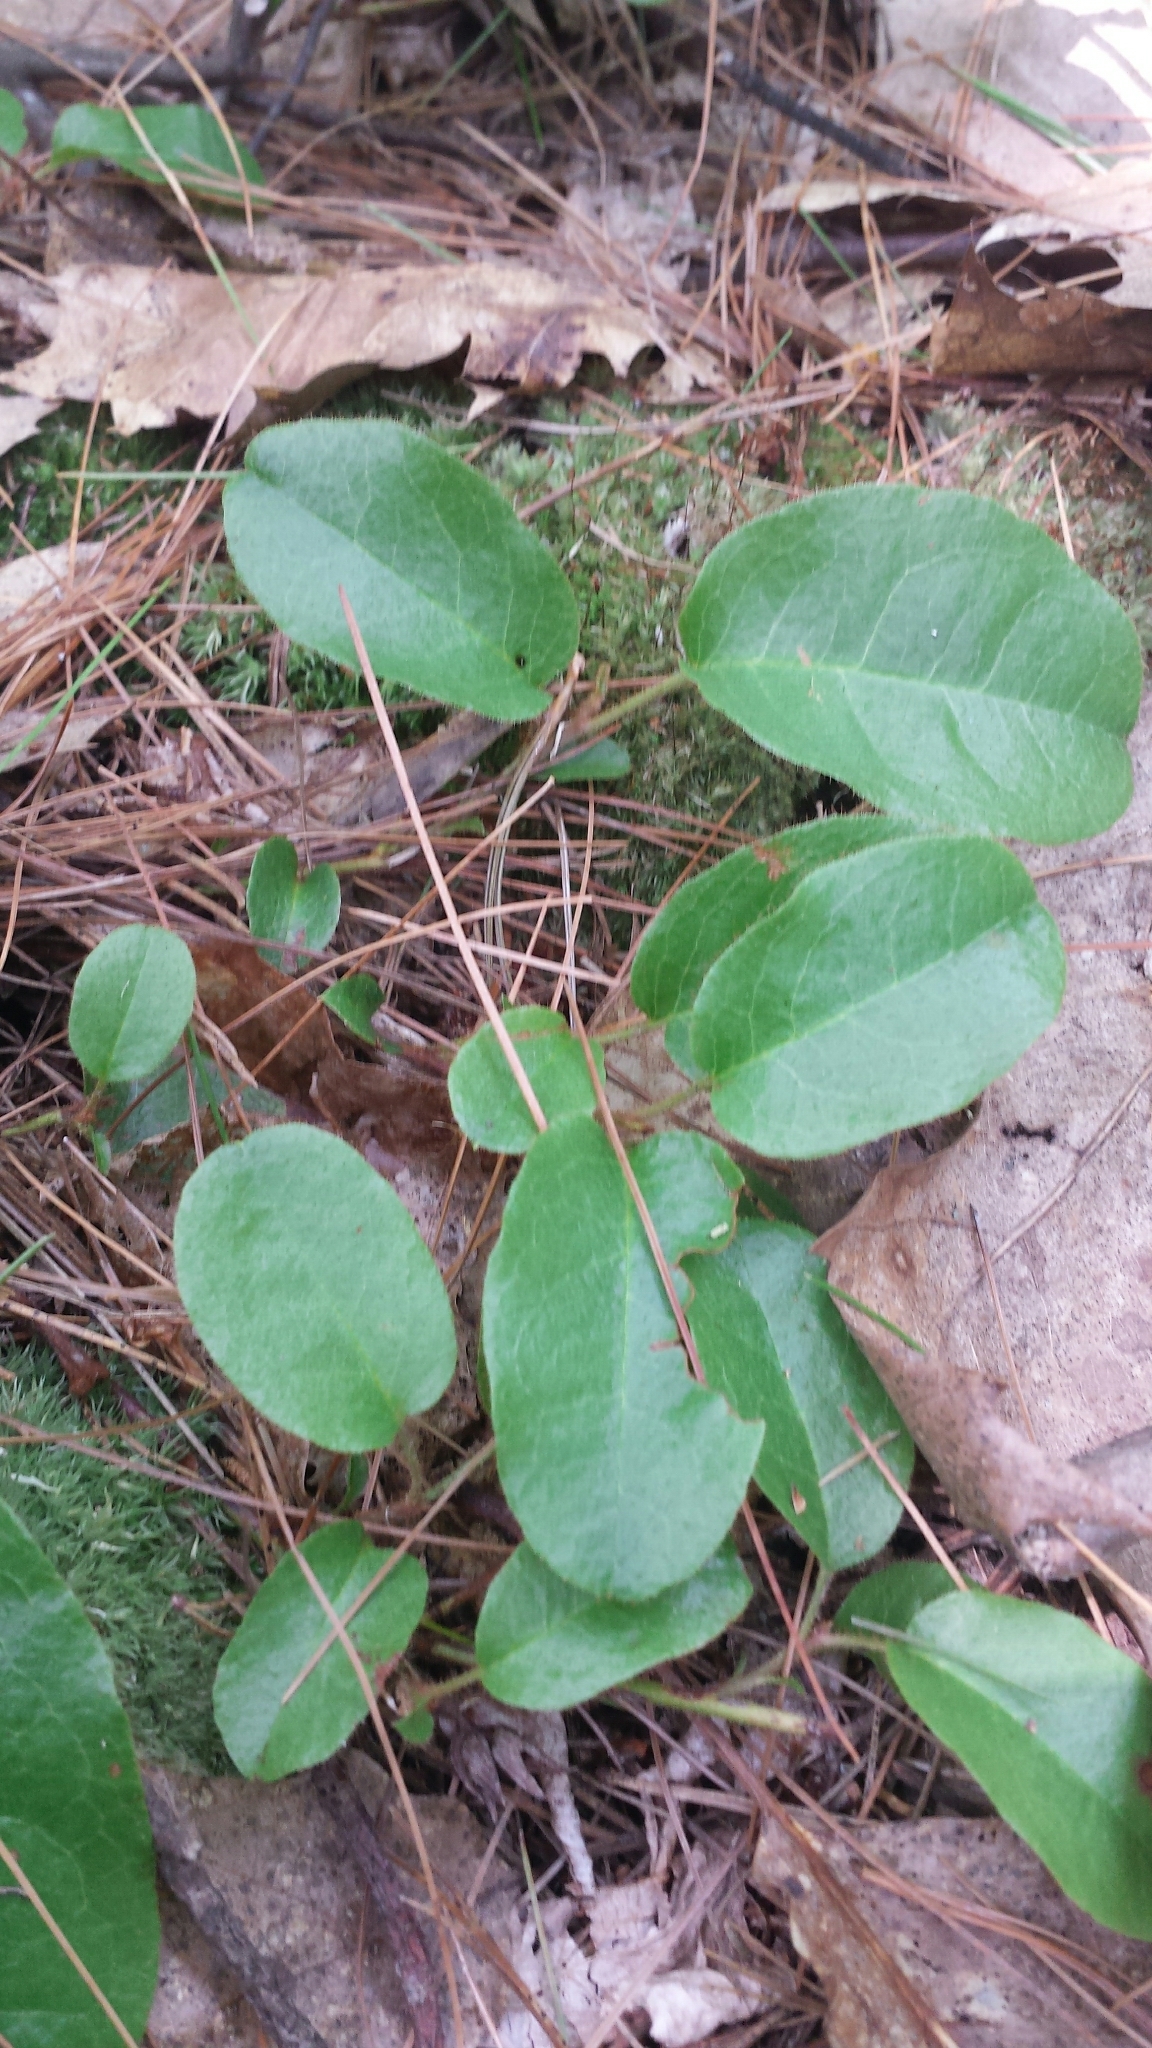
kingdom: Plantae
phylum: Tracheophyta
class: Magnoliopsida
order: Ericales
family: Ericaceae
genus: Epigaea
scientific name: Epigaea repens
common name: Gravelroot
